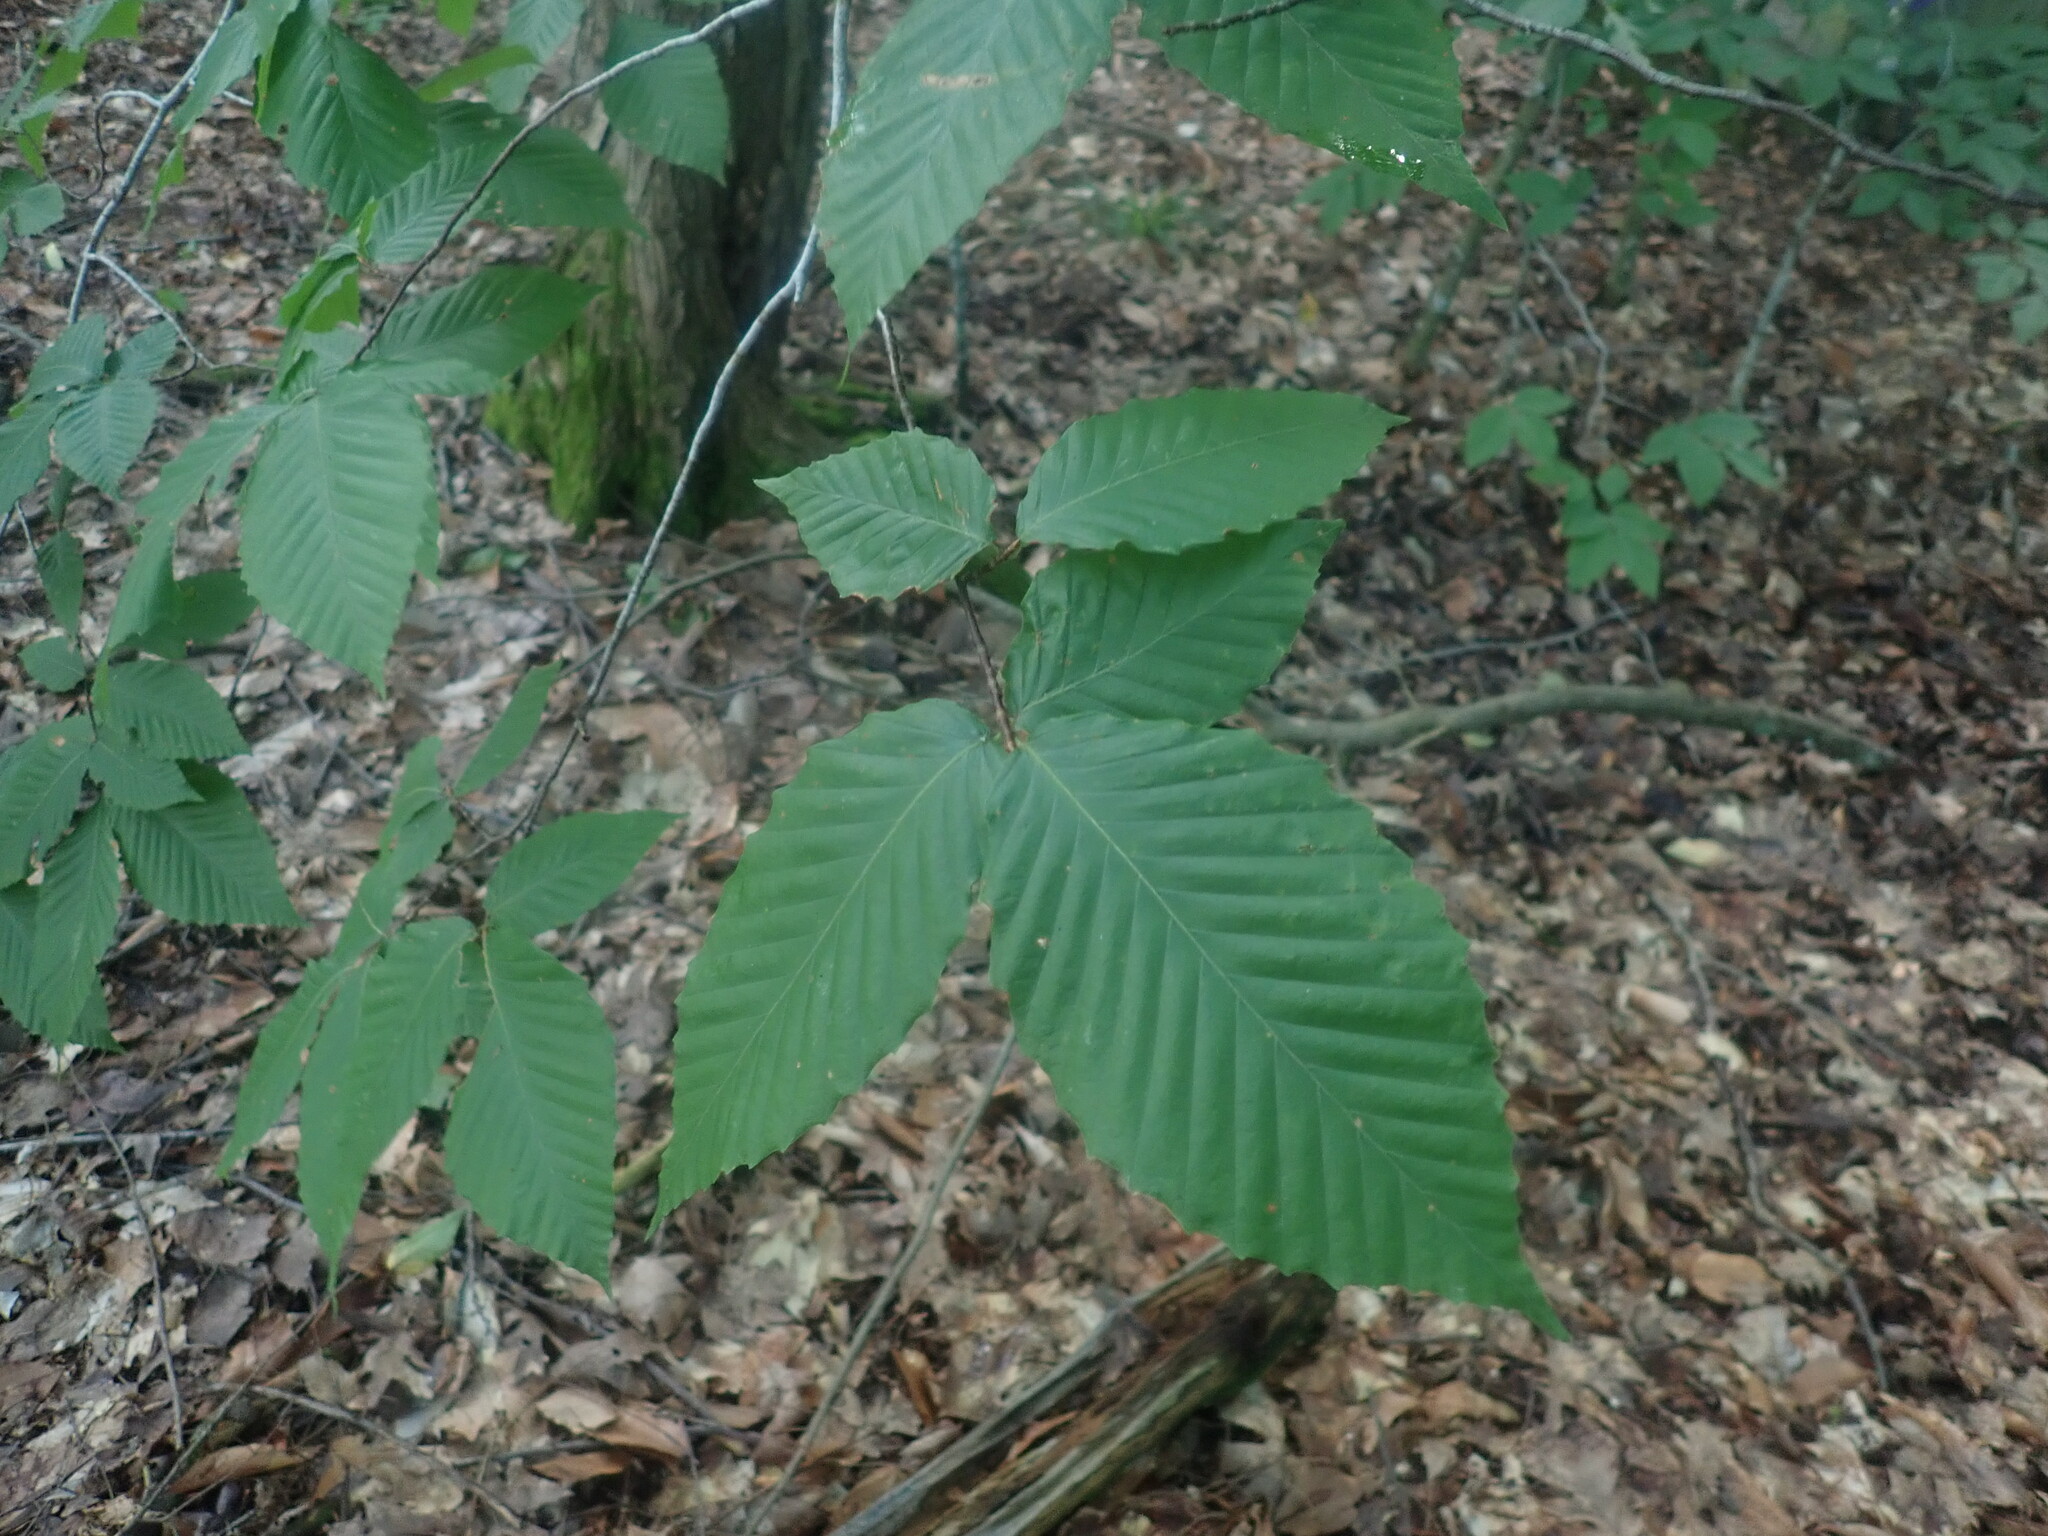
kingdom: Plantae
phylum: Tracheophyta
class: Magnoliopsida
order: Fagales
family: Fagaceae
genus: Fagus
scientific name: Fagus grandifolia
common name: American beech
